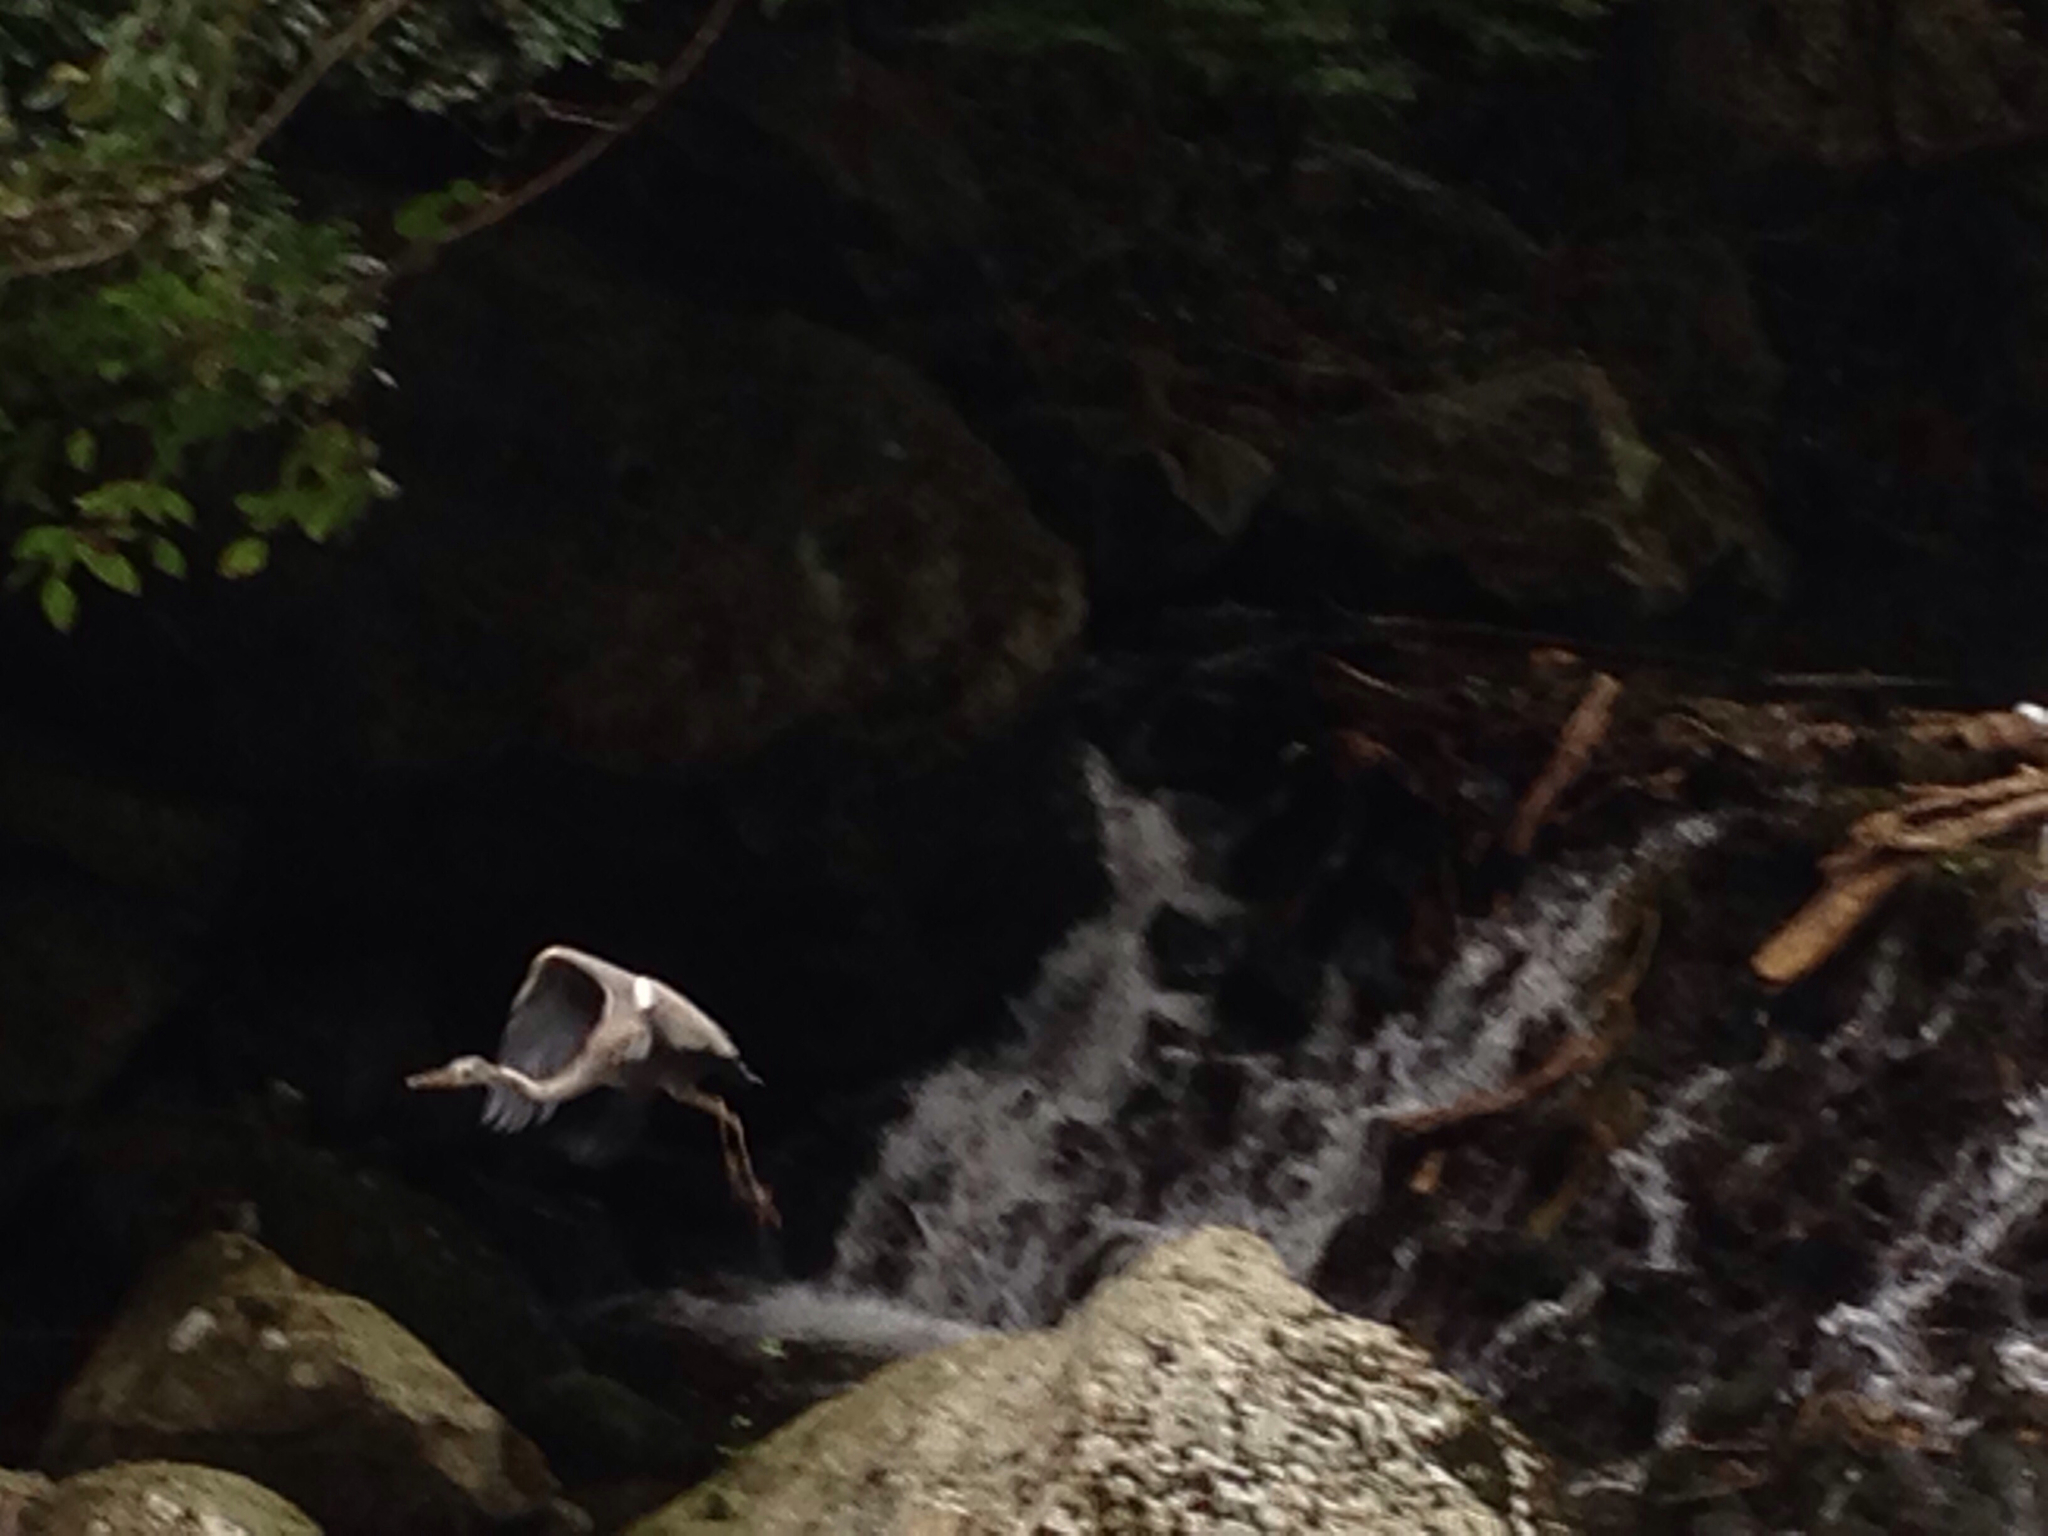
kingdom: Animalia
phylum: Chordata
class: Aves
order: Pelecaniformes
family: Ardeidae
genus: Ardea
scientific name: Ardea cinerea
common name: Grey heron
